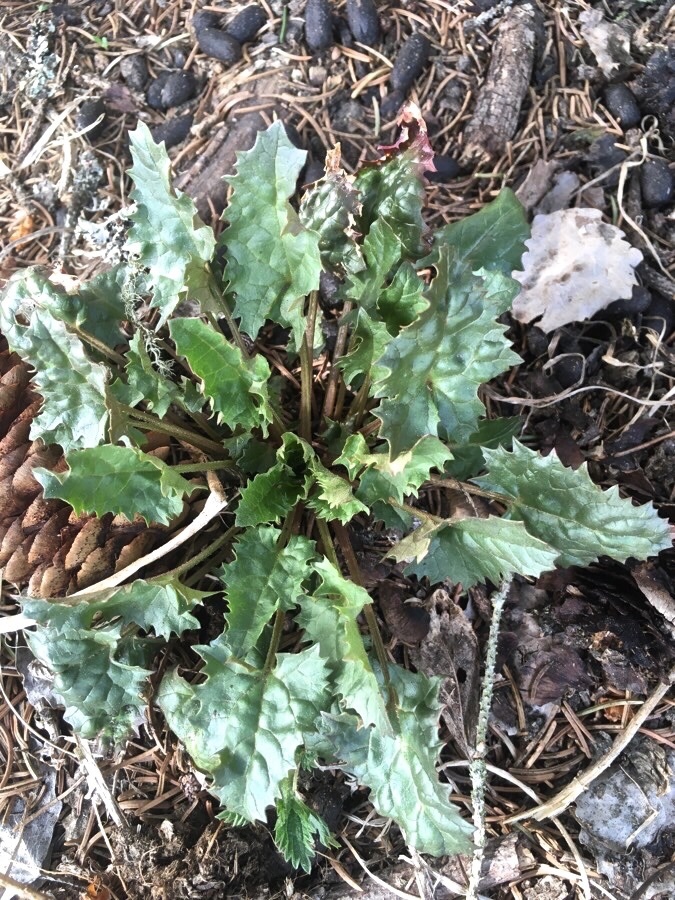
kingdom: Plantae
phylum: Tracheophyta
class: Magnoliopsida
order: Caryophyllales
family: Amaranthaceae
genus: Blitum
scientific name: Blitum virgatum
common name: Strawberry goosefoot
